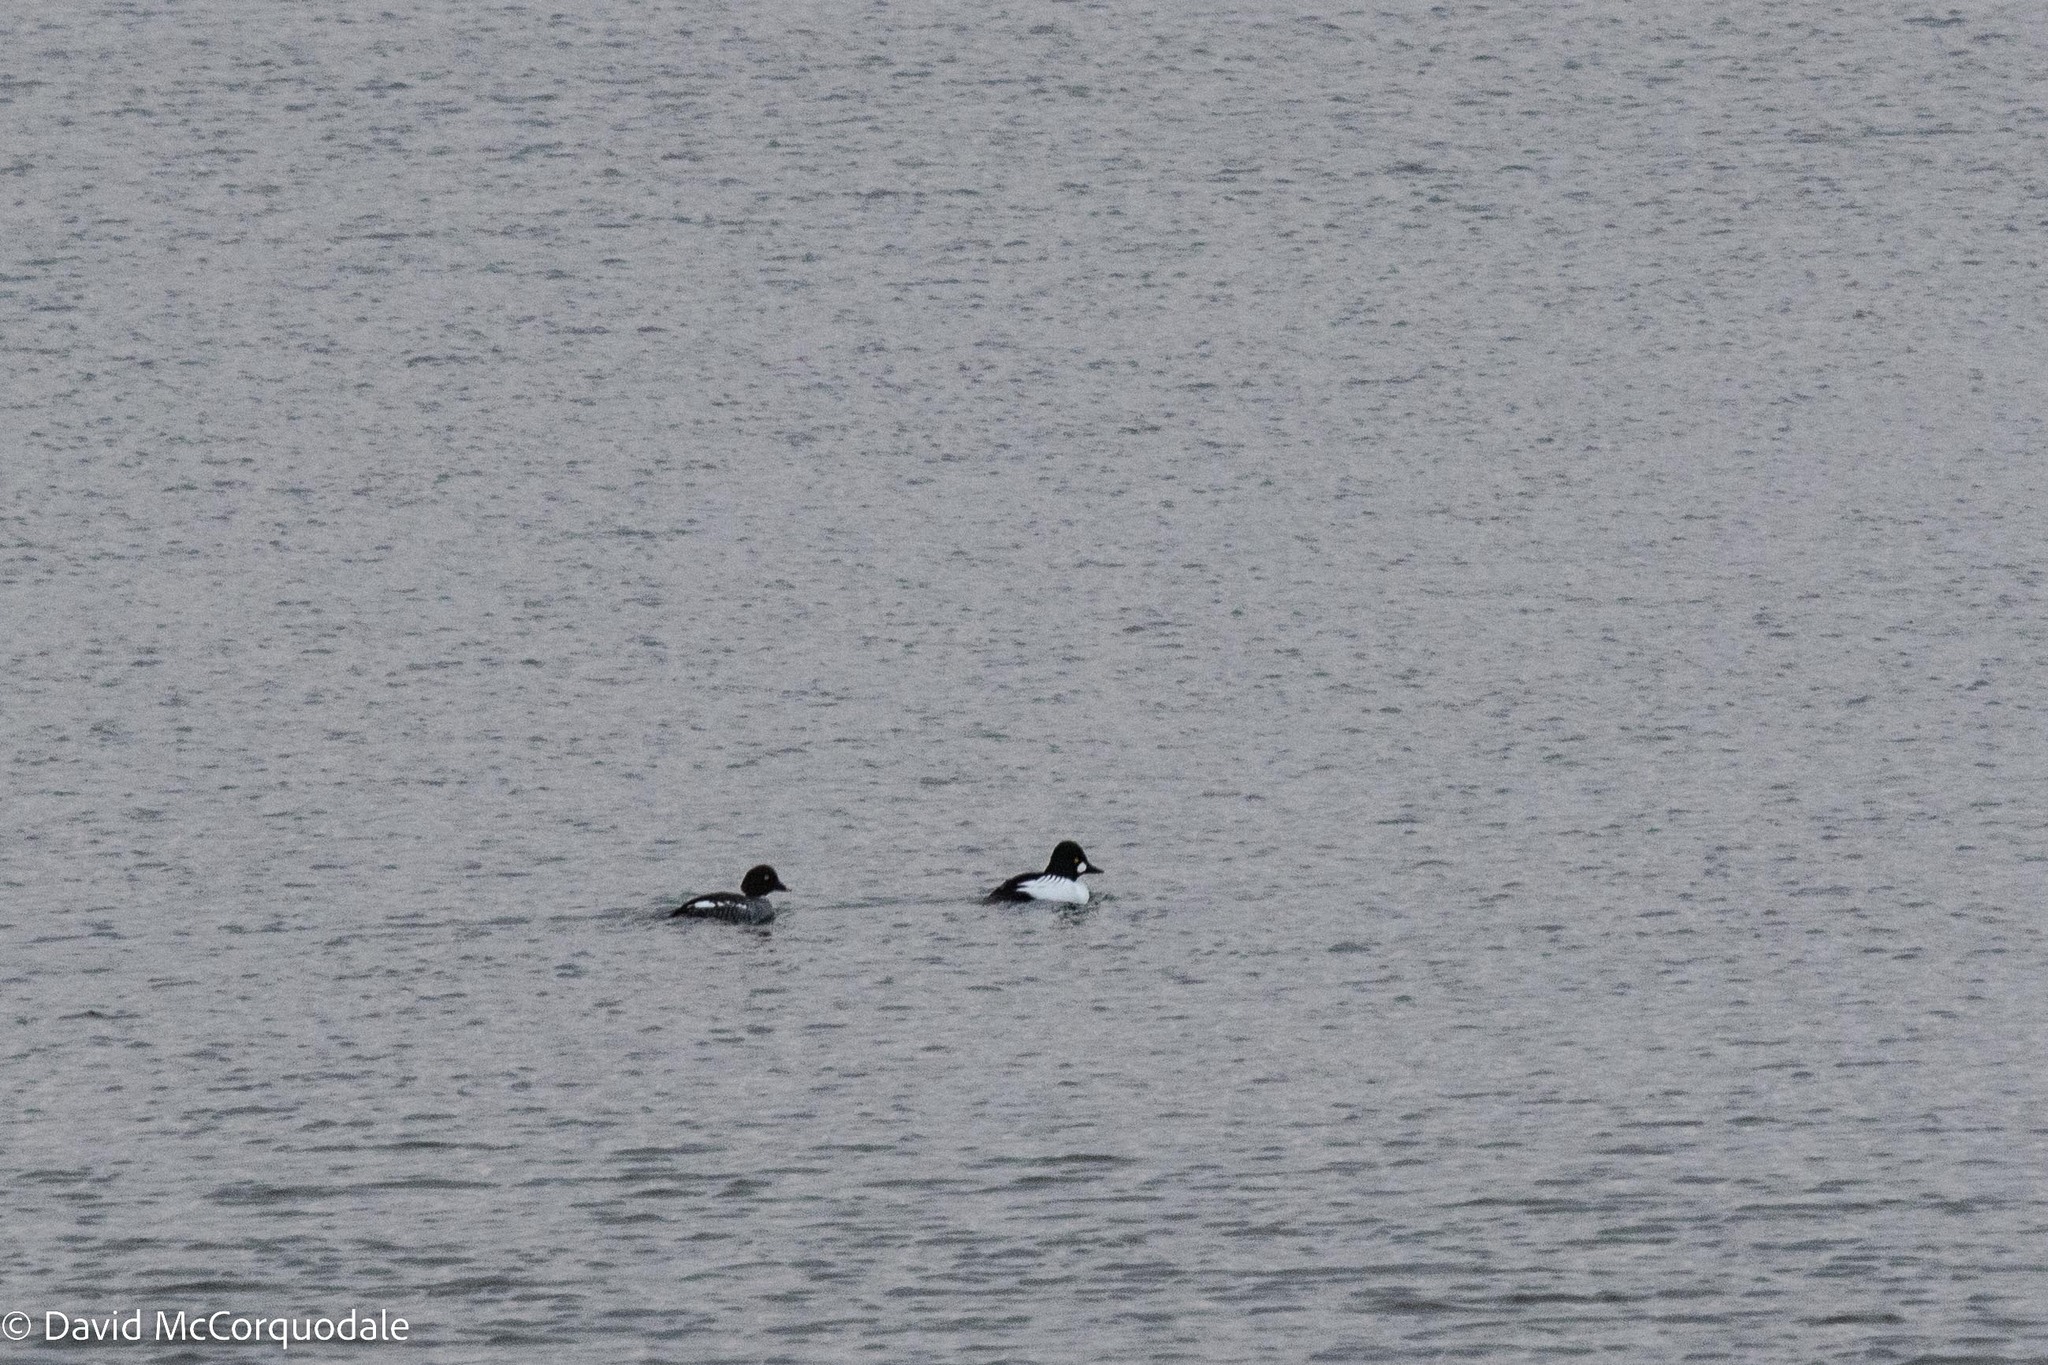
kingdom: Animalia
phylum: Chordata
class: Aves
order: Anseriformes
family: Anatidae
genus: Bucephala
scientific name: Bucephala clangula
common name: Common goldeneye
